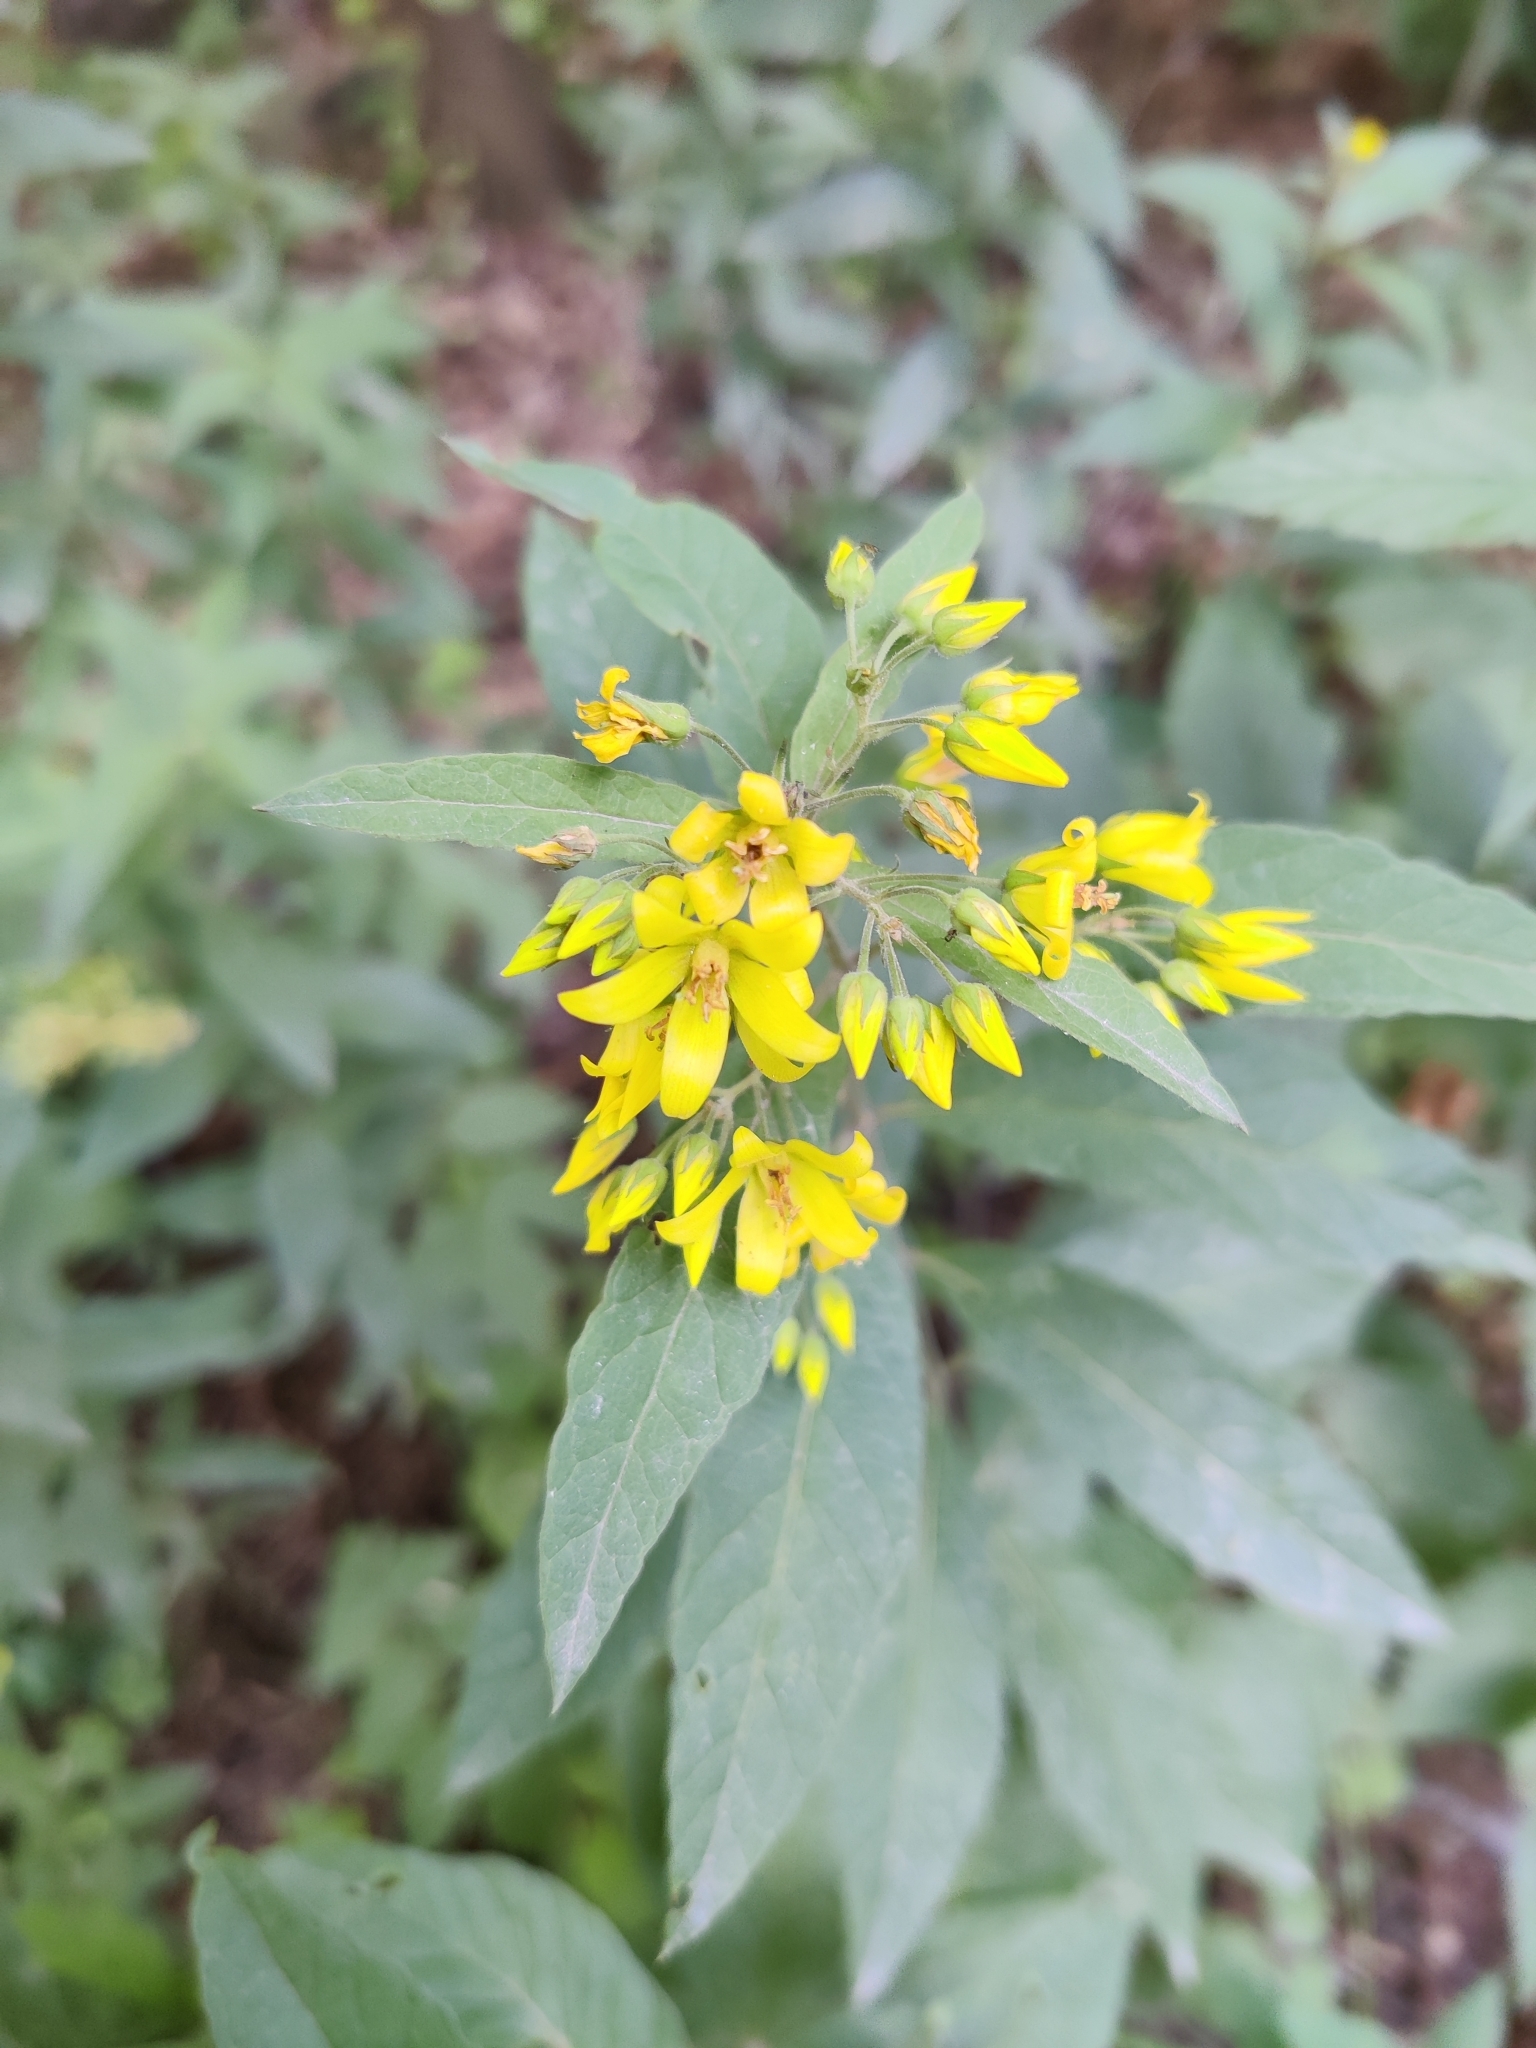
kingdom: Plantae
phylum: Tracheophyta
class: Magnoliopsida
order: Ericales
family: Primulaceae
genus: Lysimachia
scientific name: Lysimachia vulgaris
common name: Yellow loosestrife
